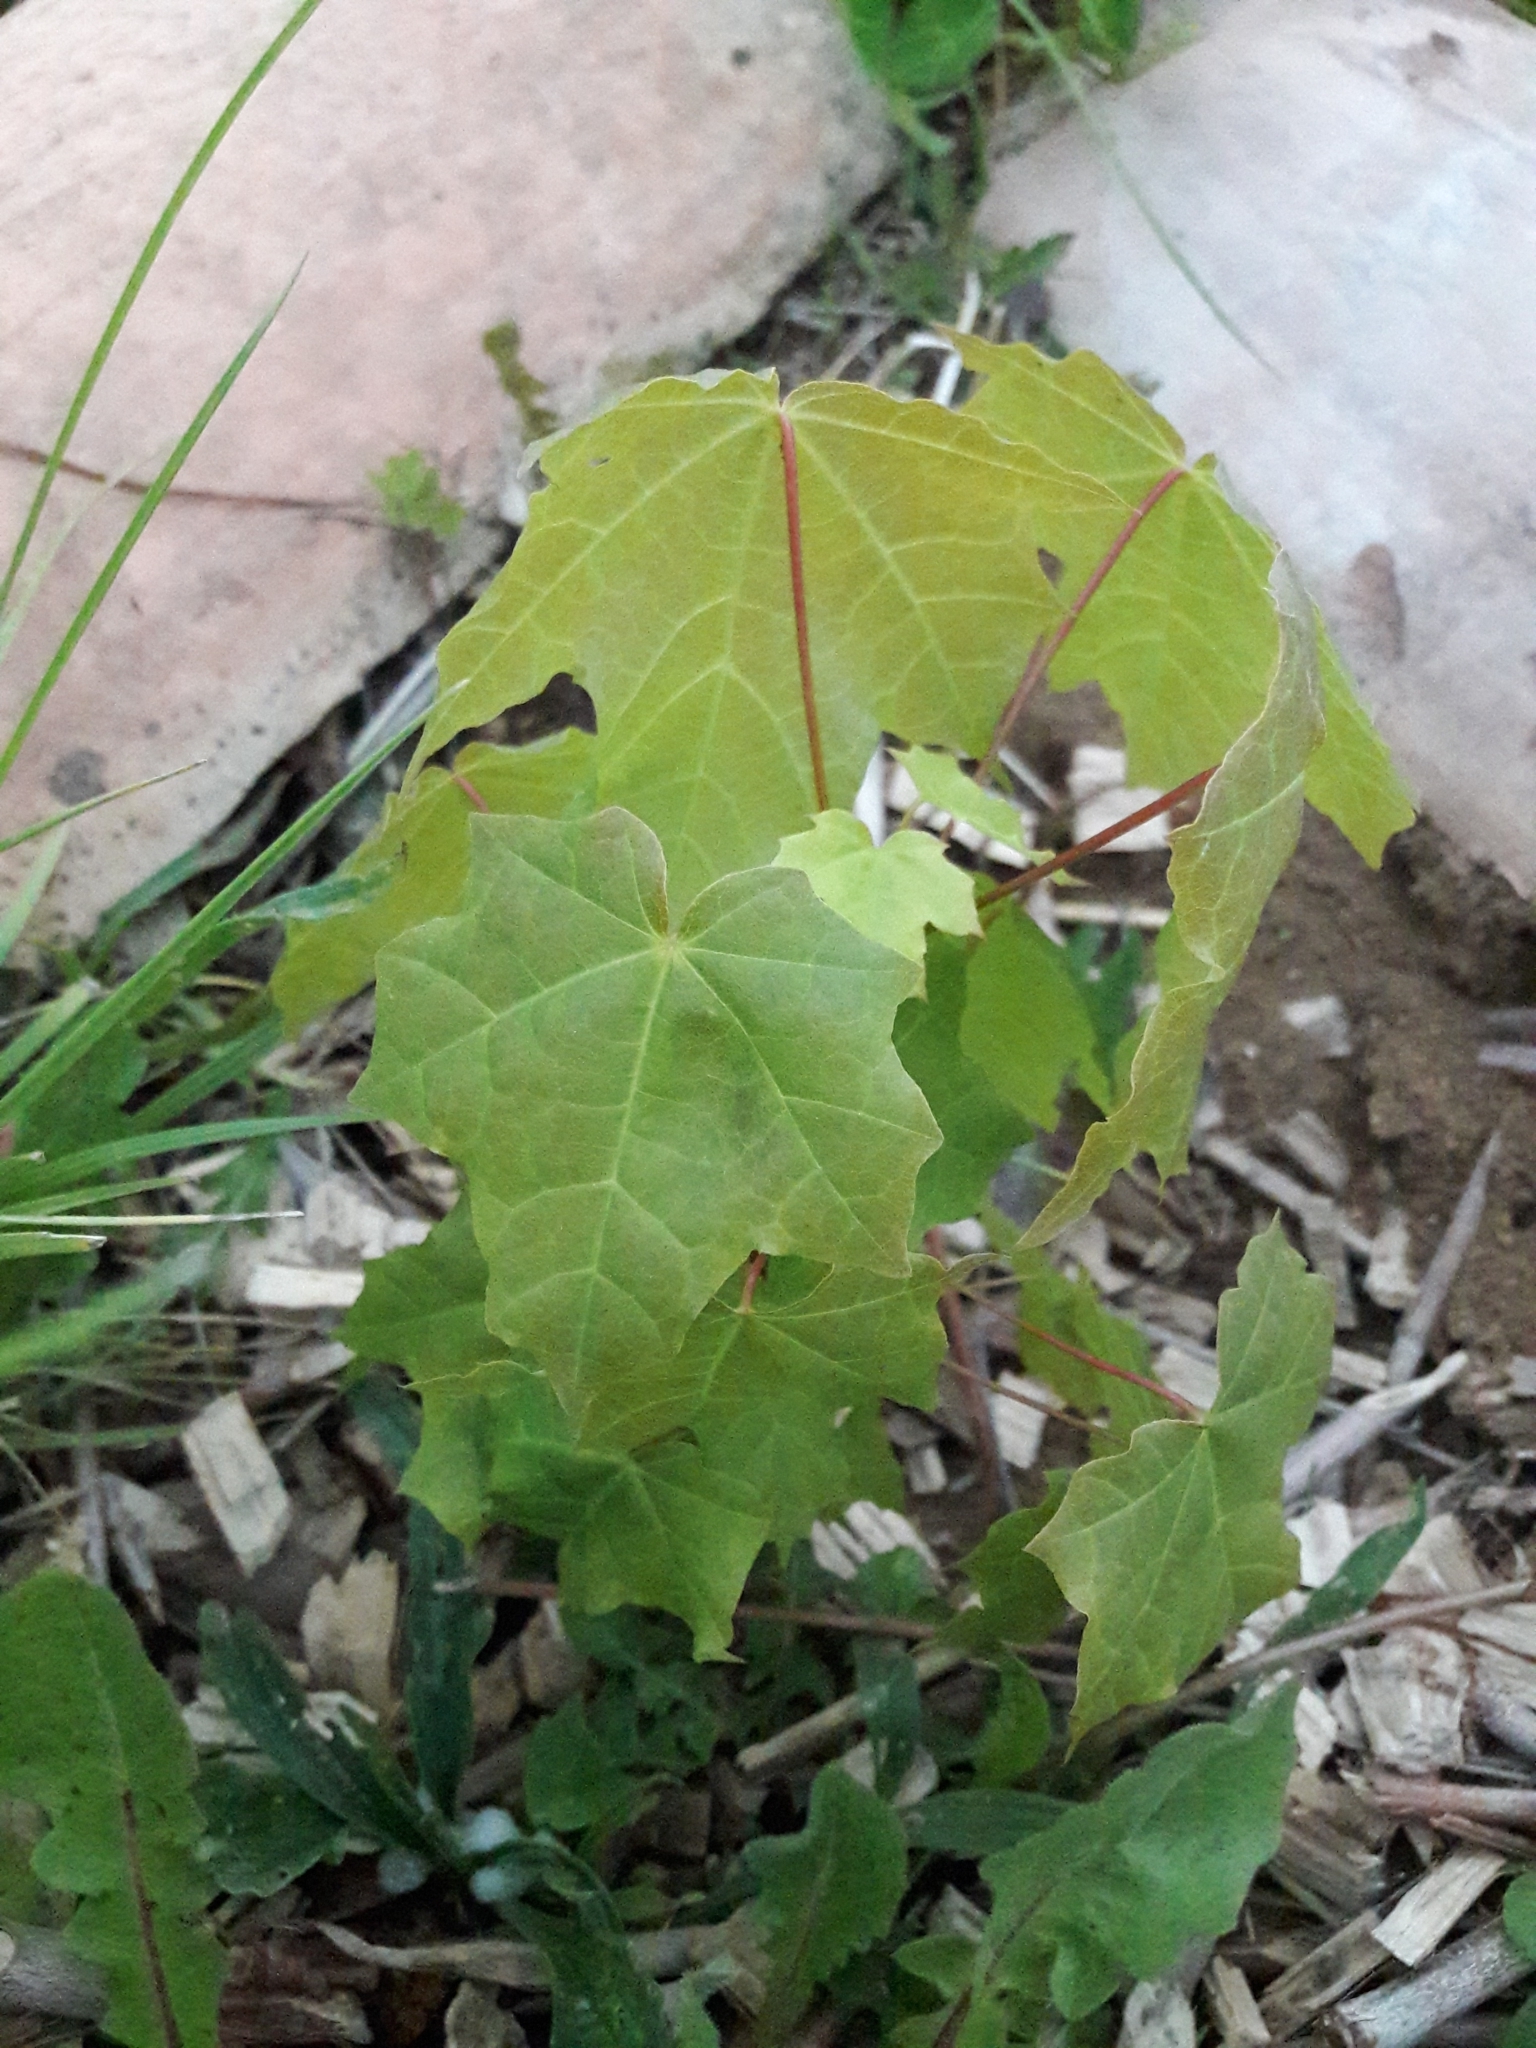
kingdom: Plantae
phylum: Tracheophyta
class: Magnoliopsida
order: Sapindales
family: Sapindaceae
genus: Acer
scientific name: Acer platanoides
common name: Norway maple
